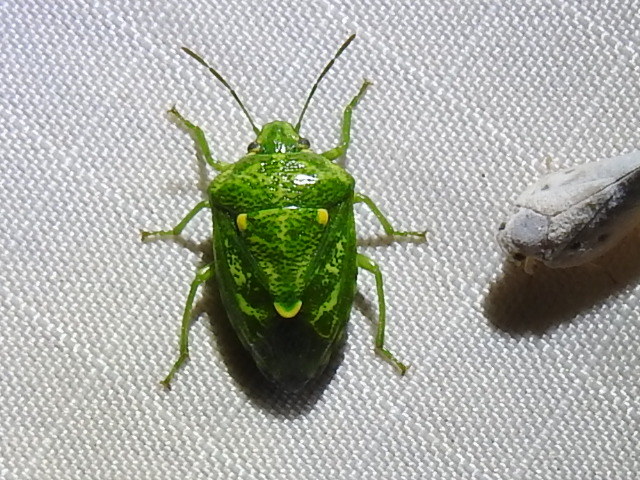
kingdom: Animalia
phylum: Arthropoda
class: Insecta
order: Hemiptera
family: Pentatomidae
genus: Banasa
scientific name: Banasa euchlora
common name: Cedar berry bug
